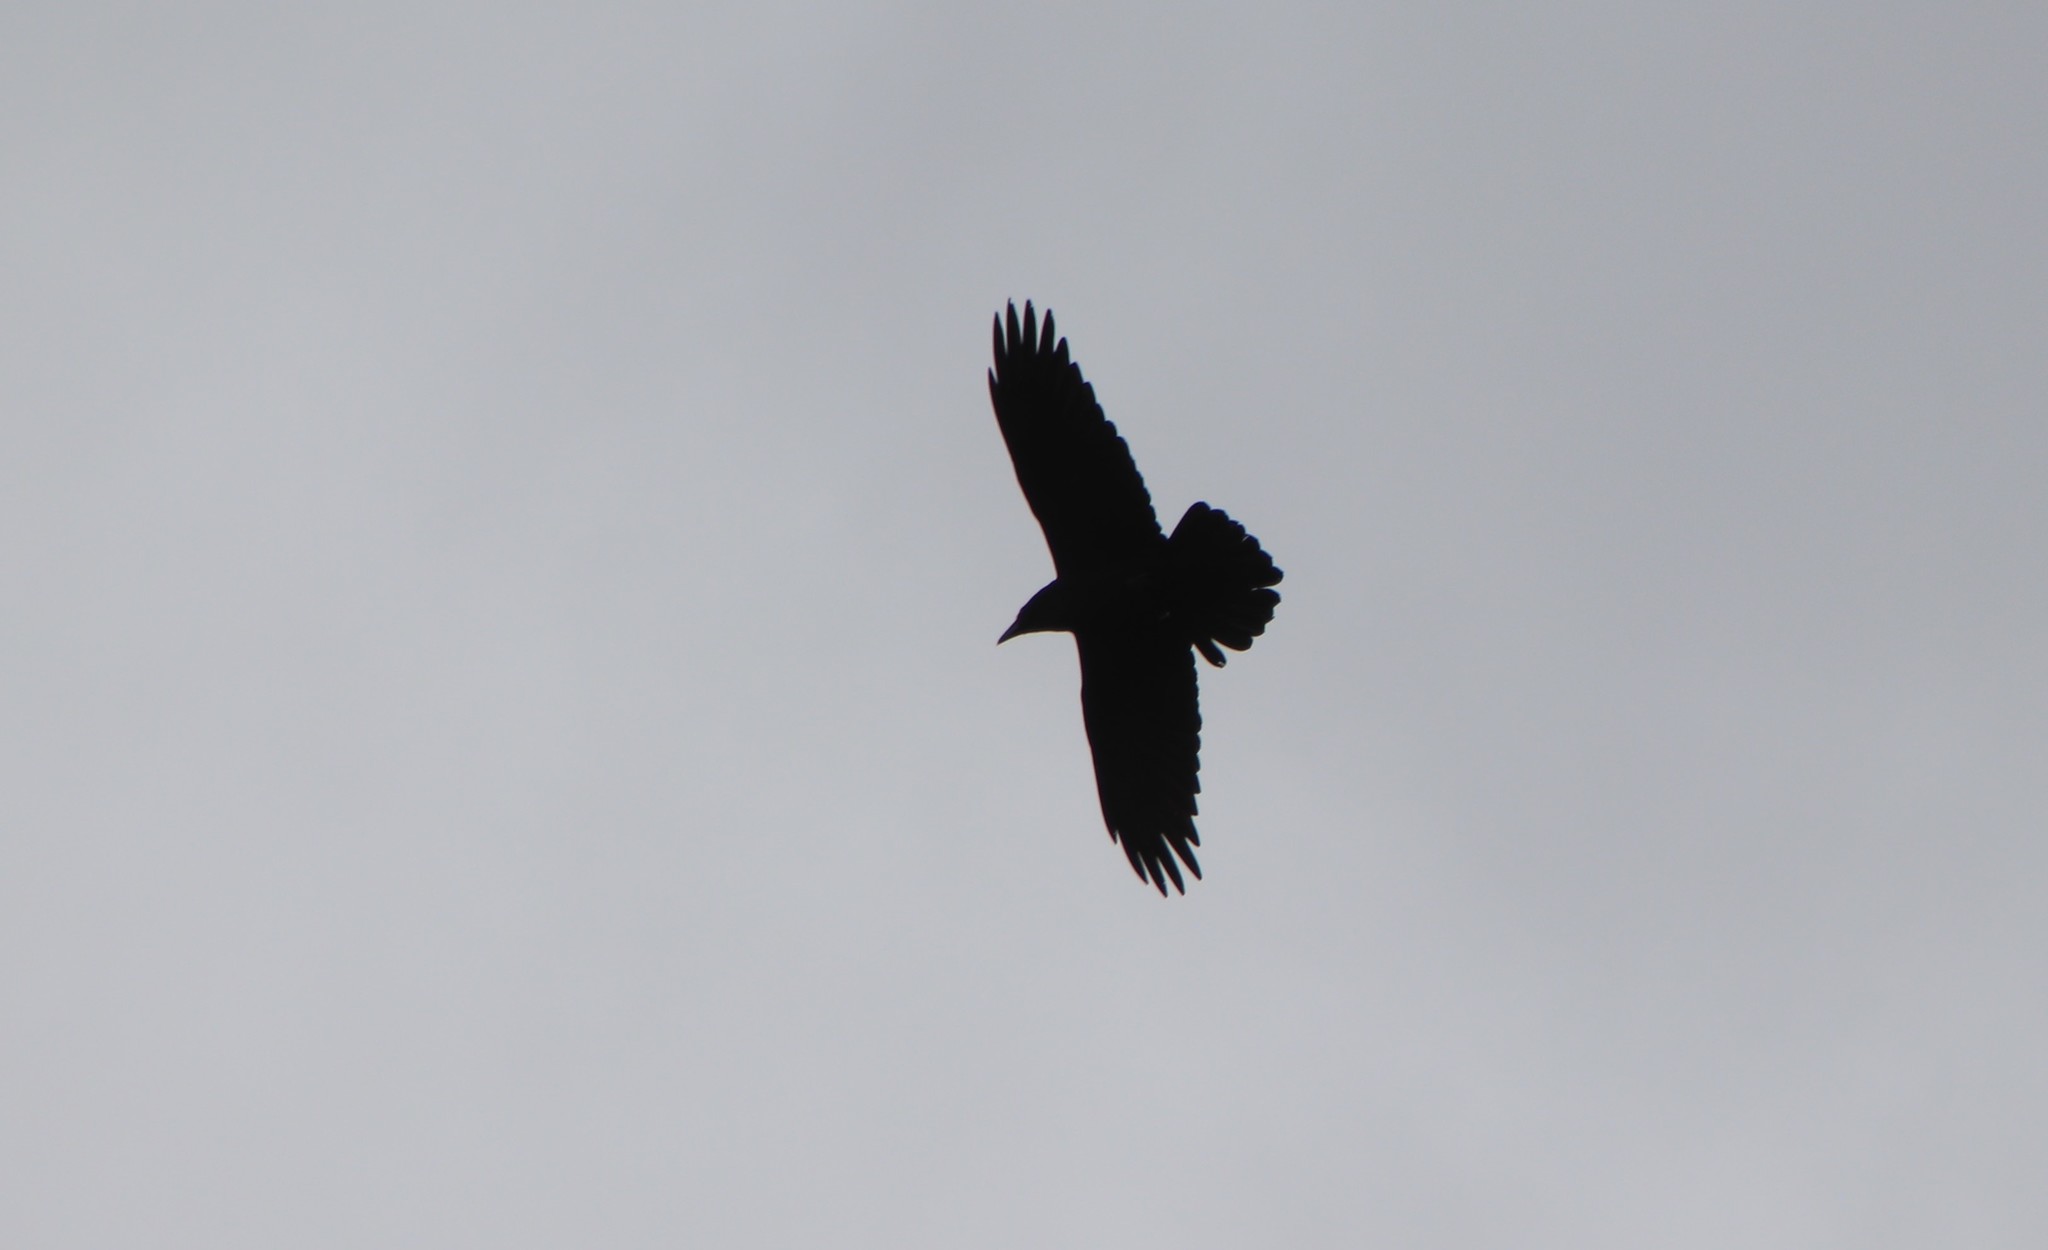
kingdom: Animalia
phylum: Chordata
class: Aves
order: Passeriformes
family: Corvidae
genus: Corvus
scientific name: Corvus corax
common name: Common raven
